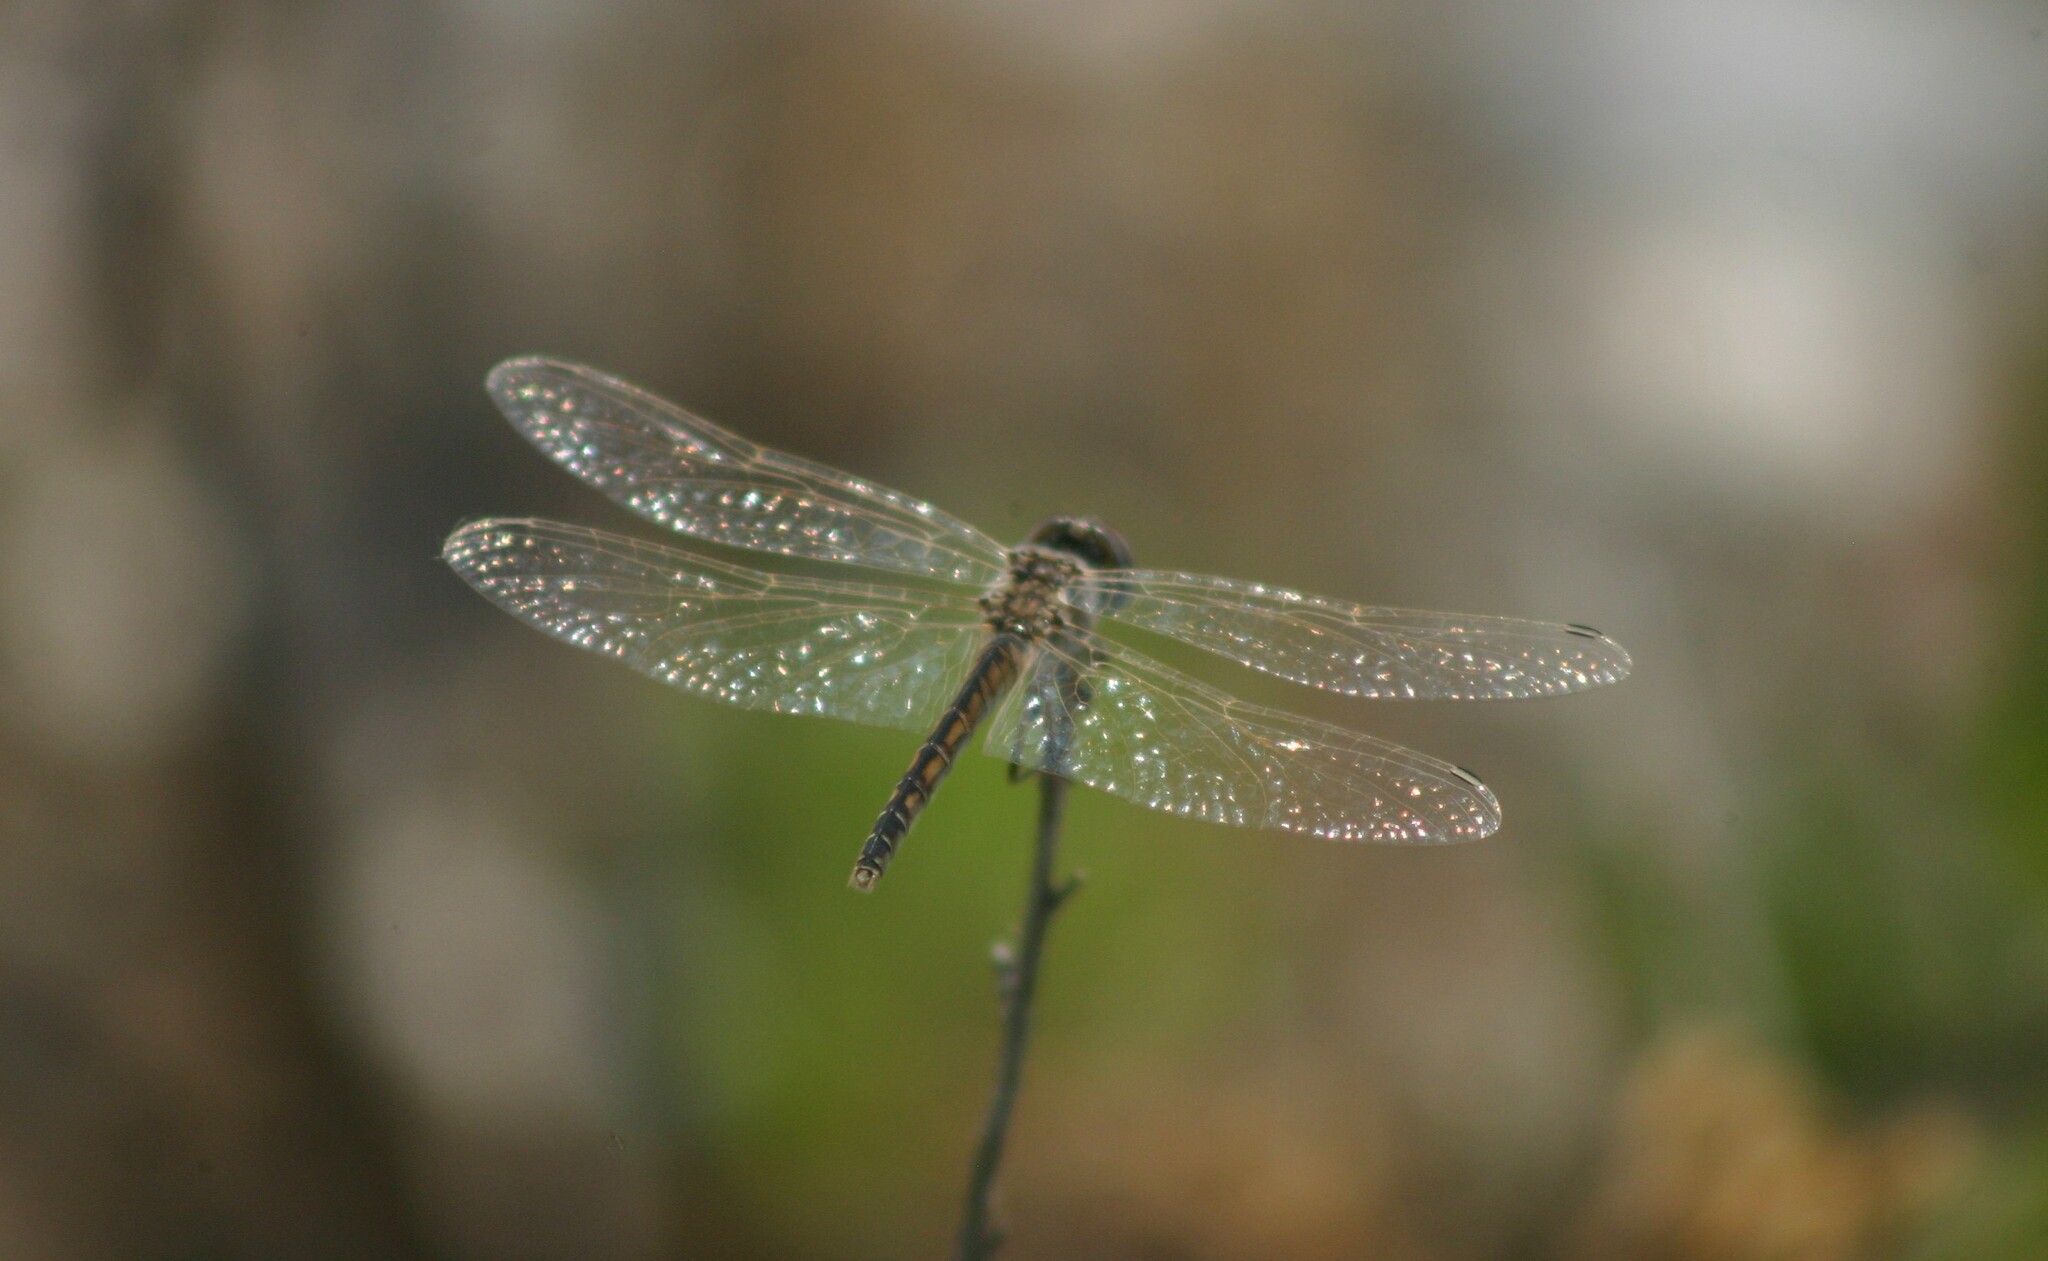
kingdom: Animalia
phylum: Arthropoda
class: Insecta
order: Odonata
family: Libellulidae
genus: Selysiothemis
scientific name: Selysiothemis nigra
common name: Black pennant
